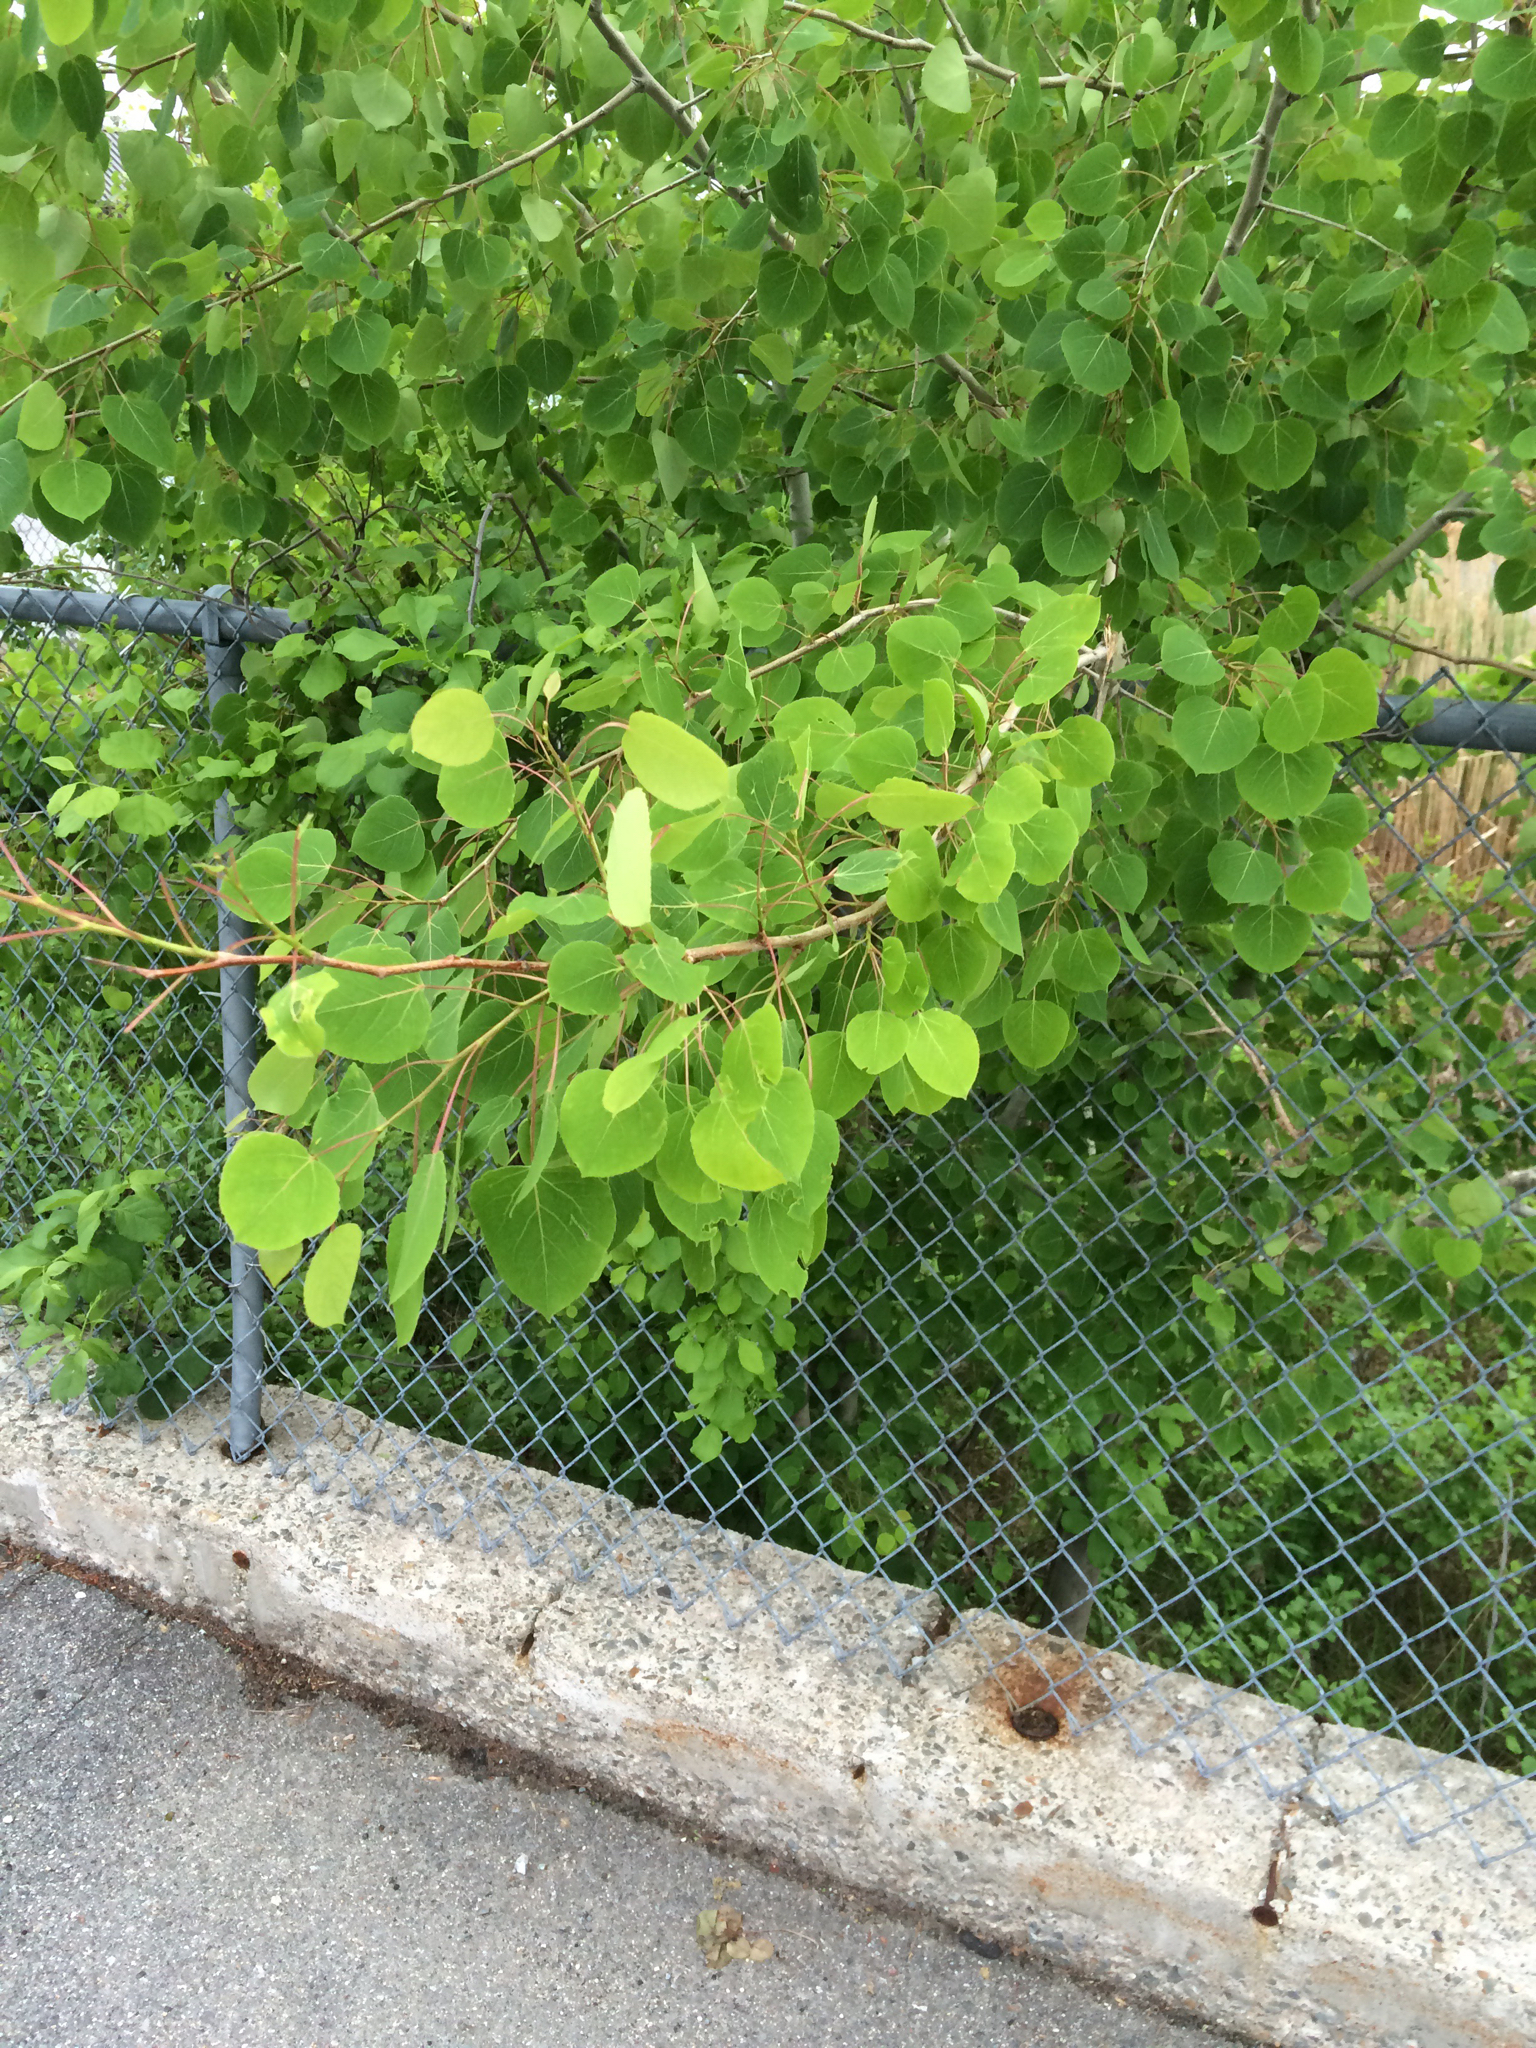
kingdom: Plantae
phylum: Tracheophyta
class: Magnoliopsida
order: Malpighiales
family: Salicaceae
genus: Populus
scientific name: Populus tremuloides
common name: Quaking aspen
